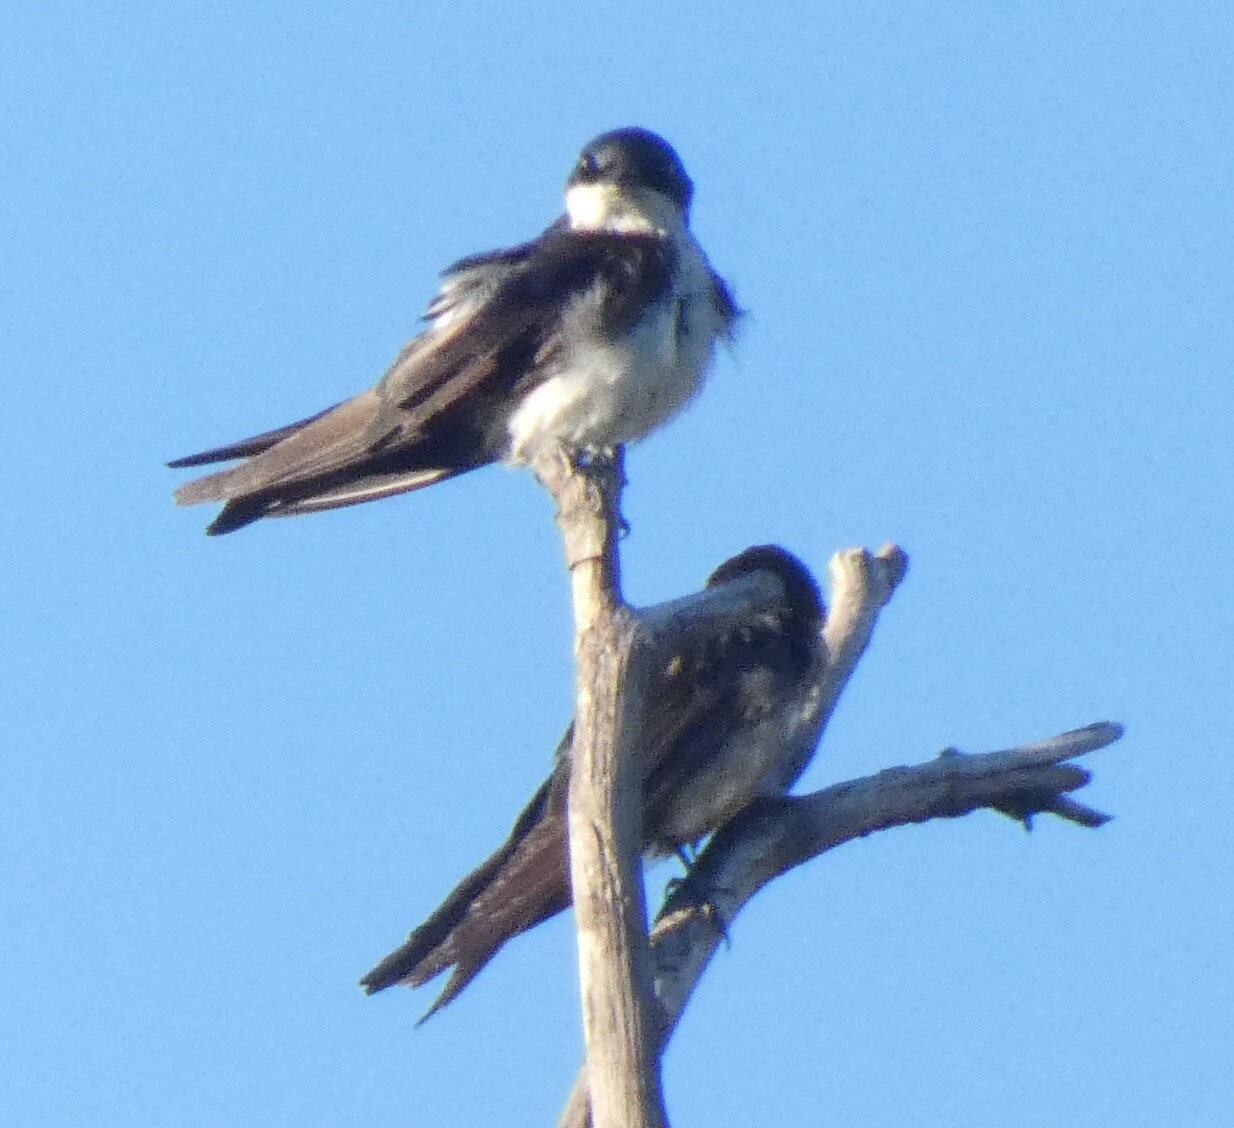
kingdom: Animalia
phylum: Chordata
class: Aves
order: Passeriformes
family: Hirundinidae
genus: Notiochelidon
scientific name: Notiochelidon cyanoleuca
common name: Blue-and-white swallow
